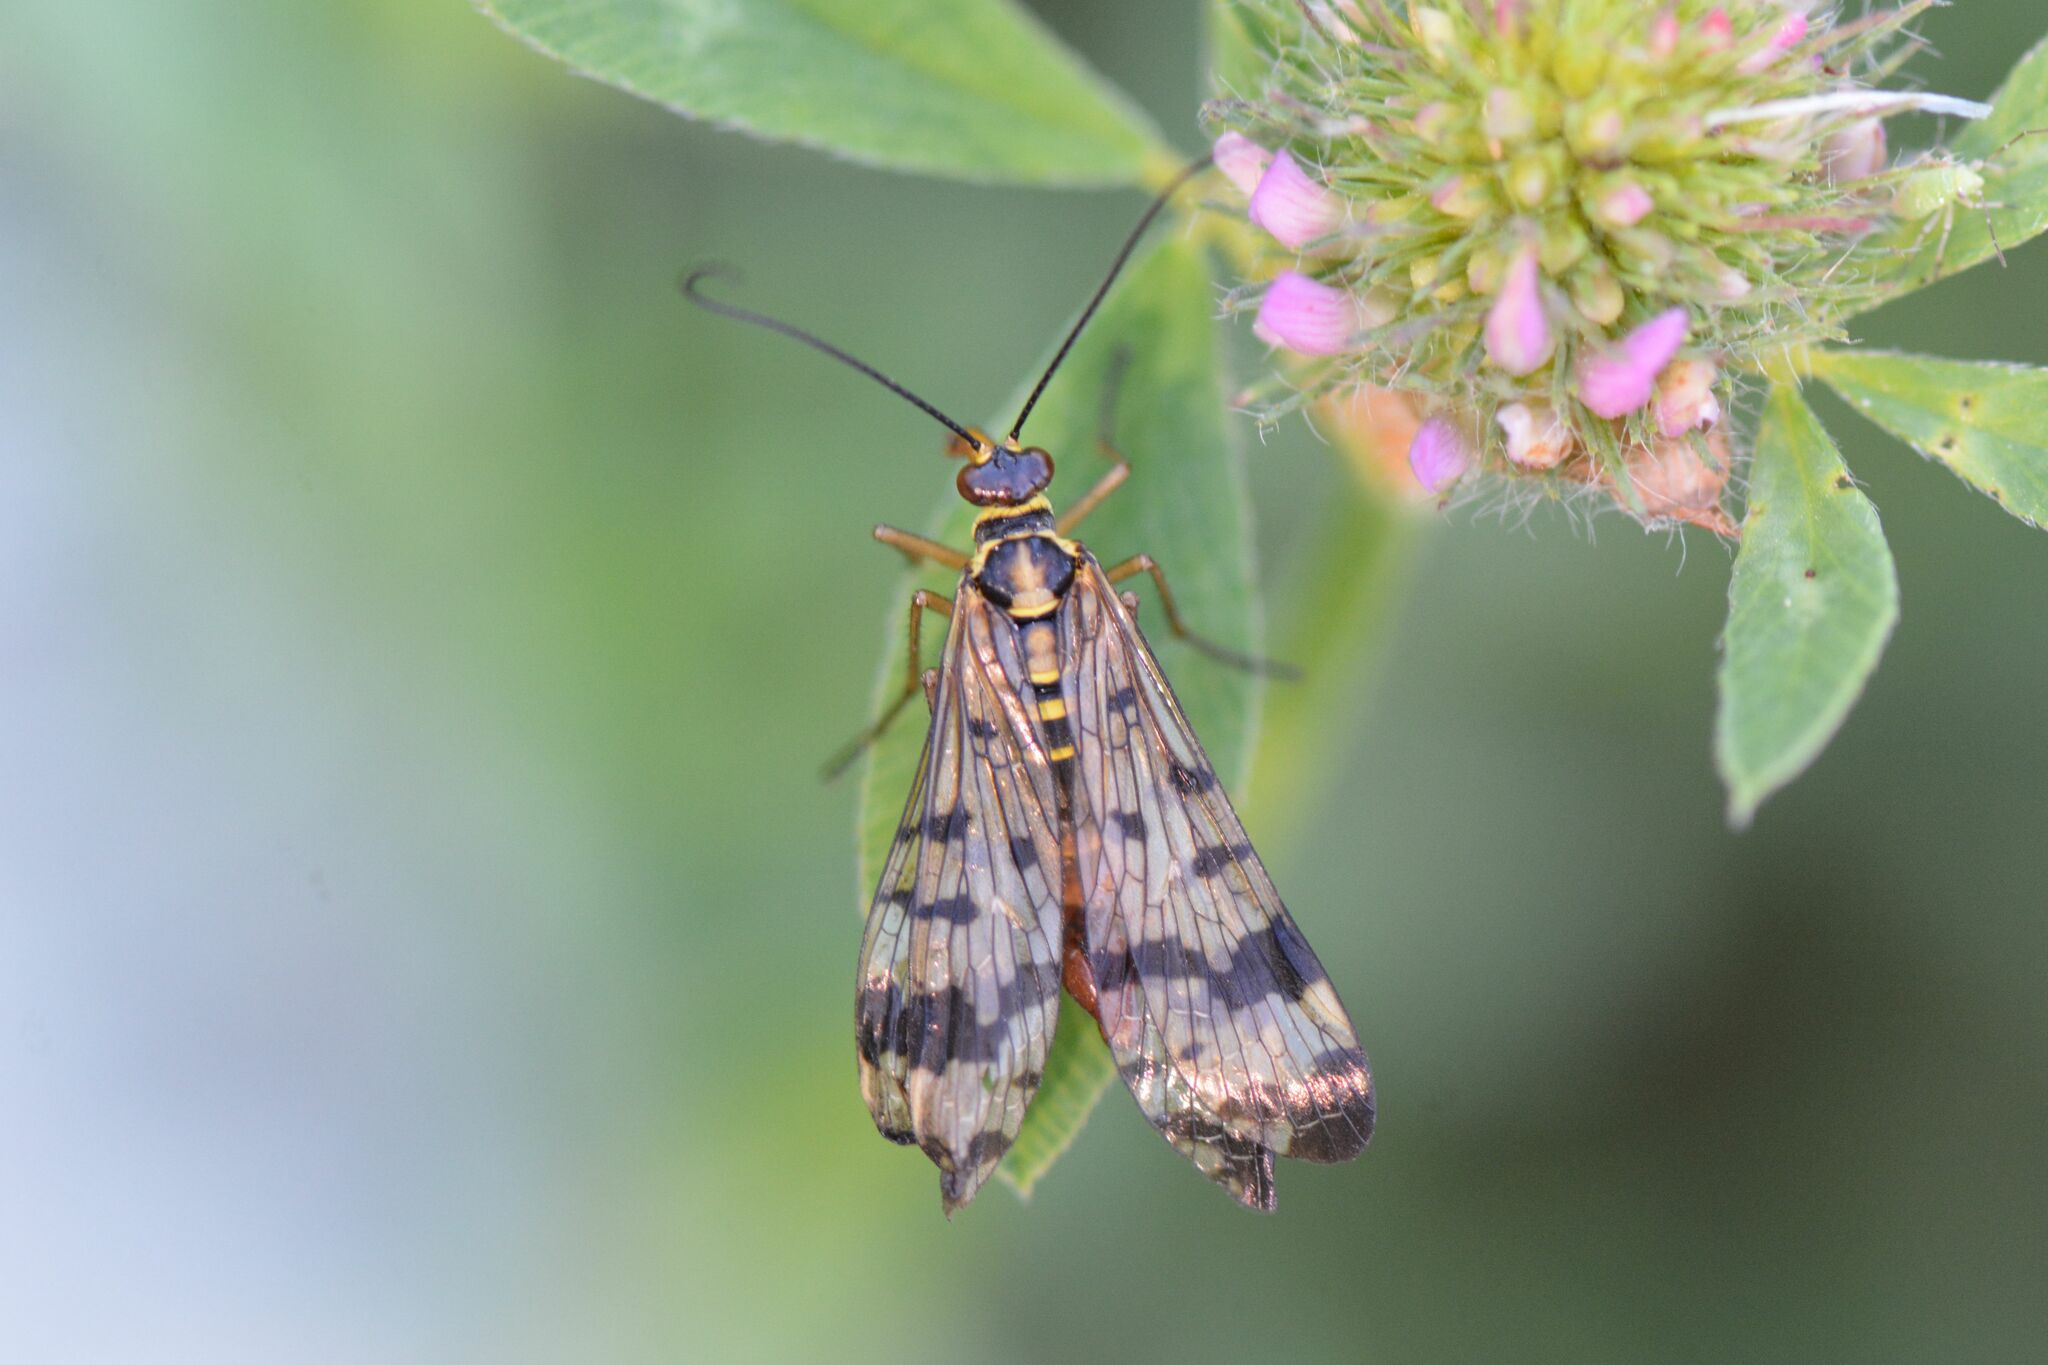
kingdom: Animalia
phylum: Arthropoda
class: Insecta
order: Mecoptera
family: Panorpidae
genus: Panorpa
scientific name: Panorpa communis
